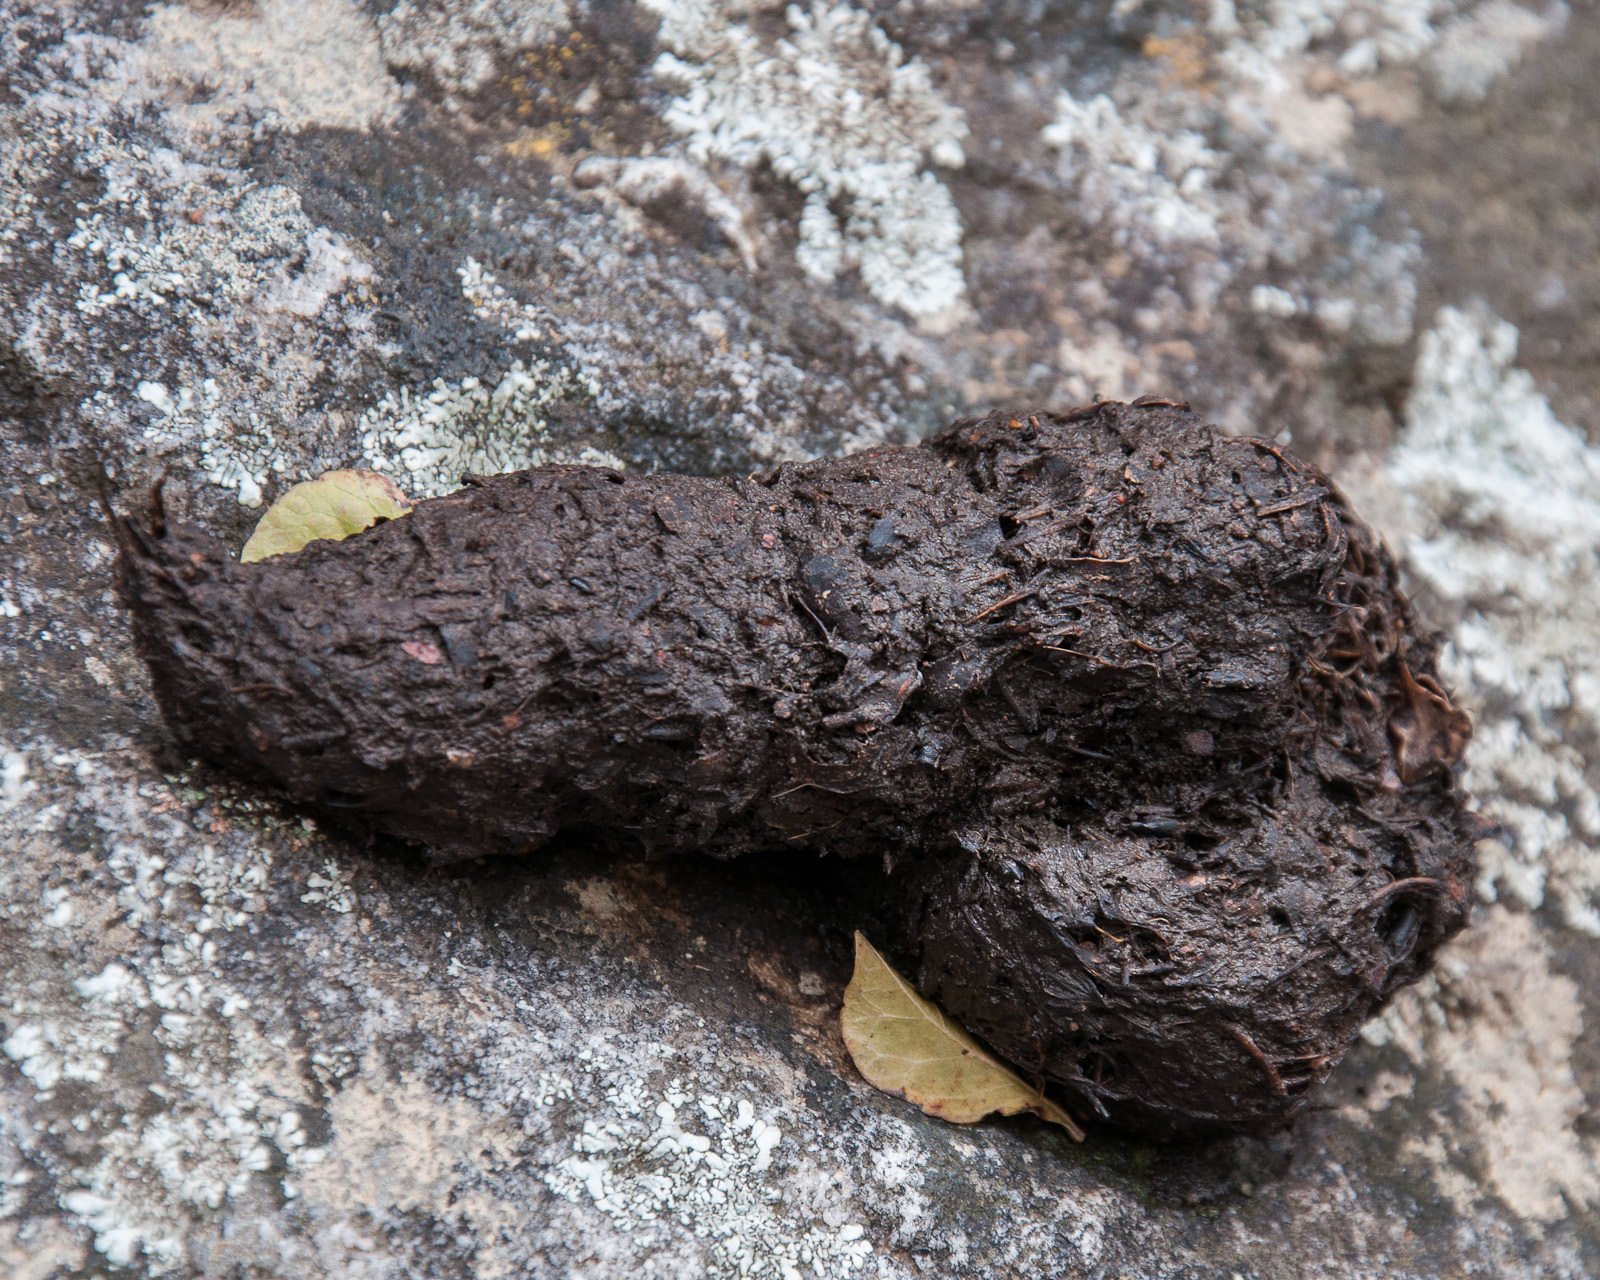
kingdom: Animalia
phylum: Chordata
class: Mammalia
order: Primates
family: Cercopithecidae
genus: Papio
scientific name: Papio ursinus
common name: Chacma baboon
